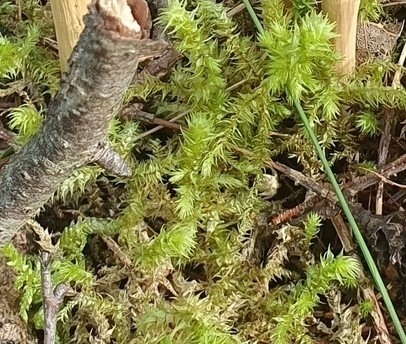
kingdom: Plantae
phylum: Bryophyta
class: Bryopsida
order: Hypnales
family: Hylocomiaceae
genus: Hylocomiadelphus
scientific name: Hylocomiadelphus triquetrus
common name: Rough goose neck moss
